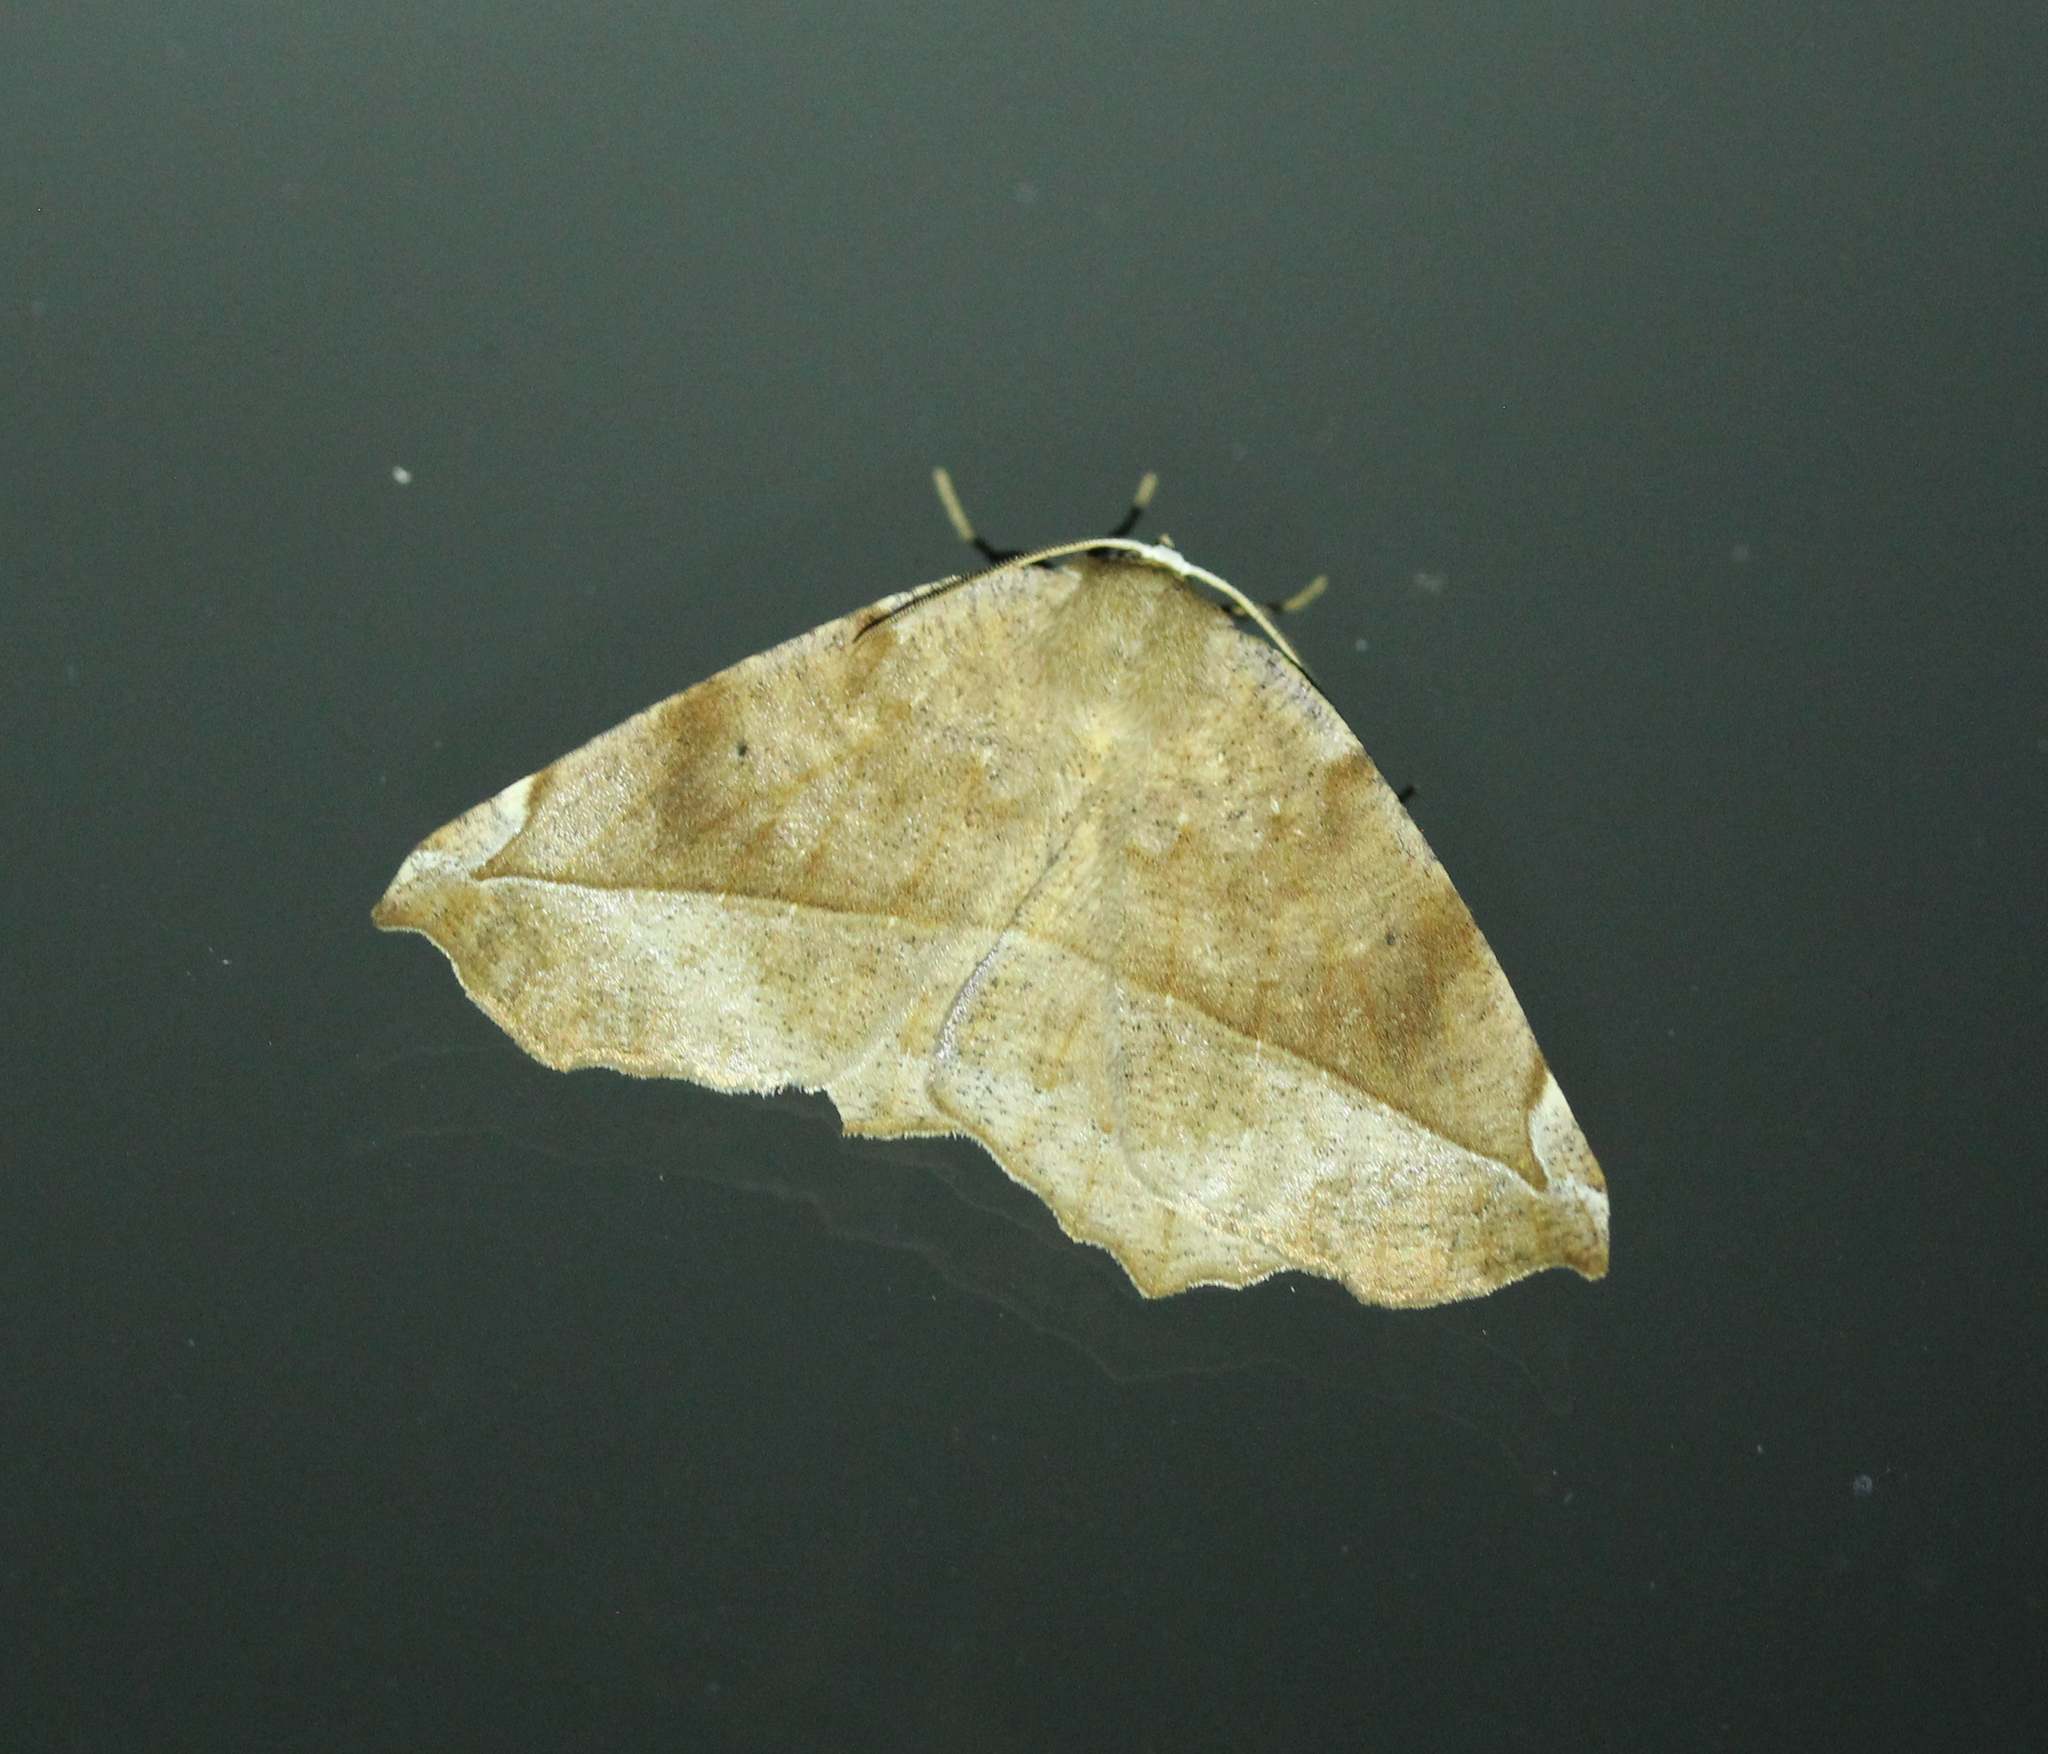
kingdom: Animalia
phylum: Arthropoda
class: Insecta
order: Lepidoptera
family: Geometridae
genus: Eutrapela
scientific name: Eutrapela clemataria
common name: Curved-toothed geometer
